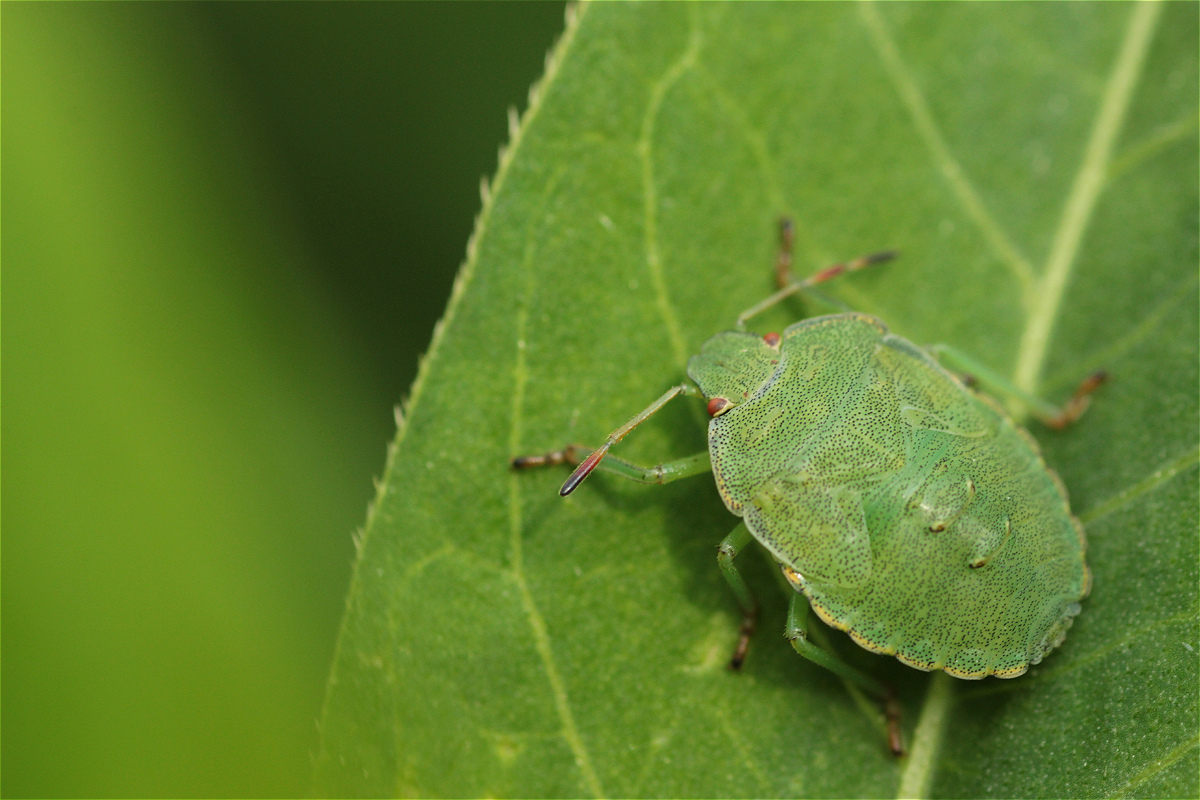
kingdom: Animalia
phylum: Arthropoda
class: Insecta
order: Hemiptera
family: Pentatomidae
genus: Palomena
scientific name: Palomena prasina
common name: Green shieldbug
